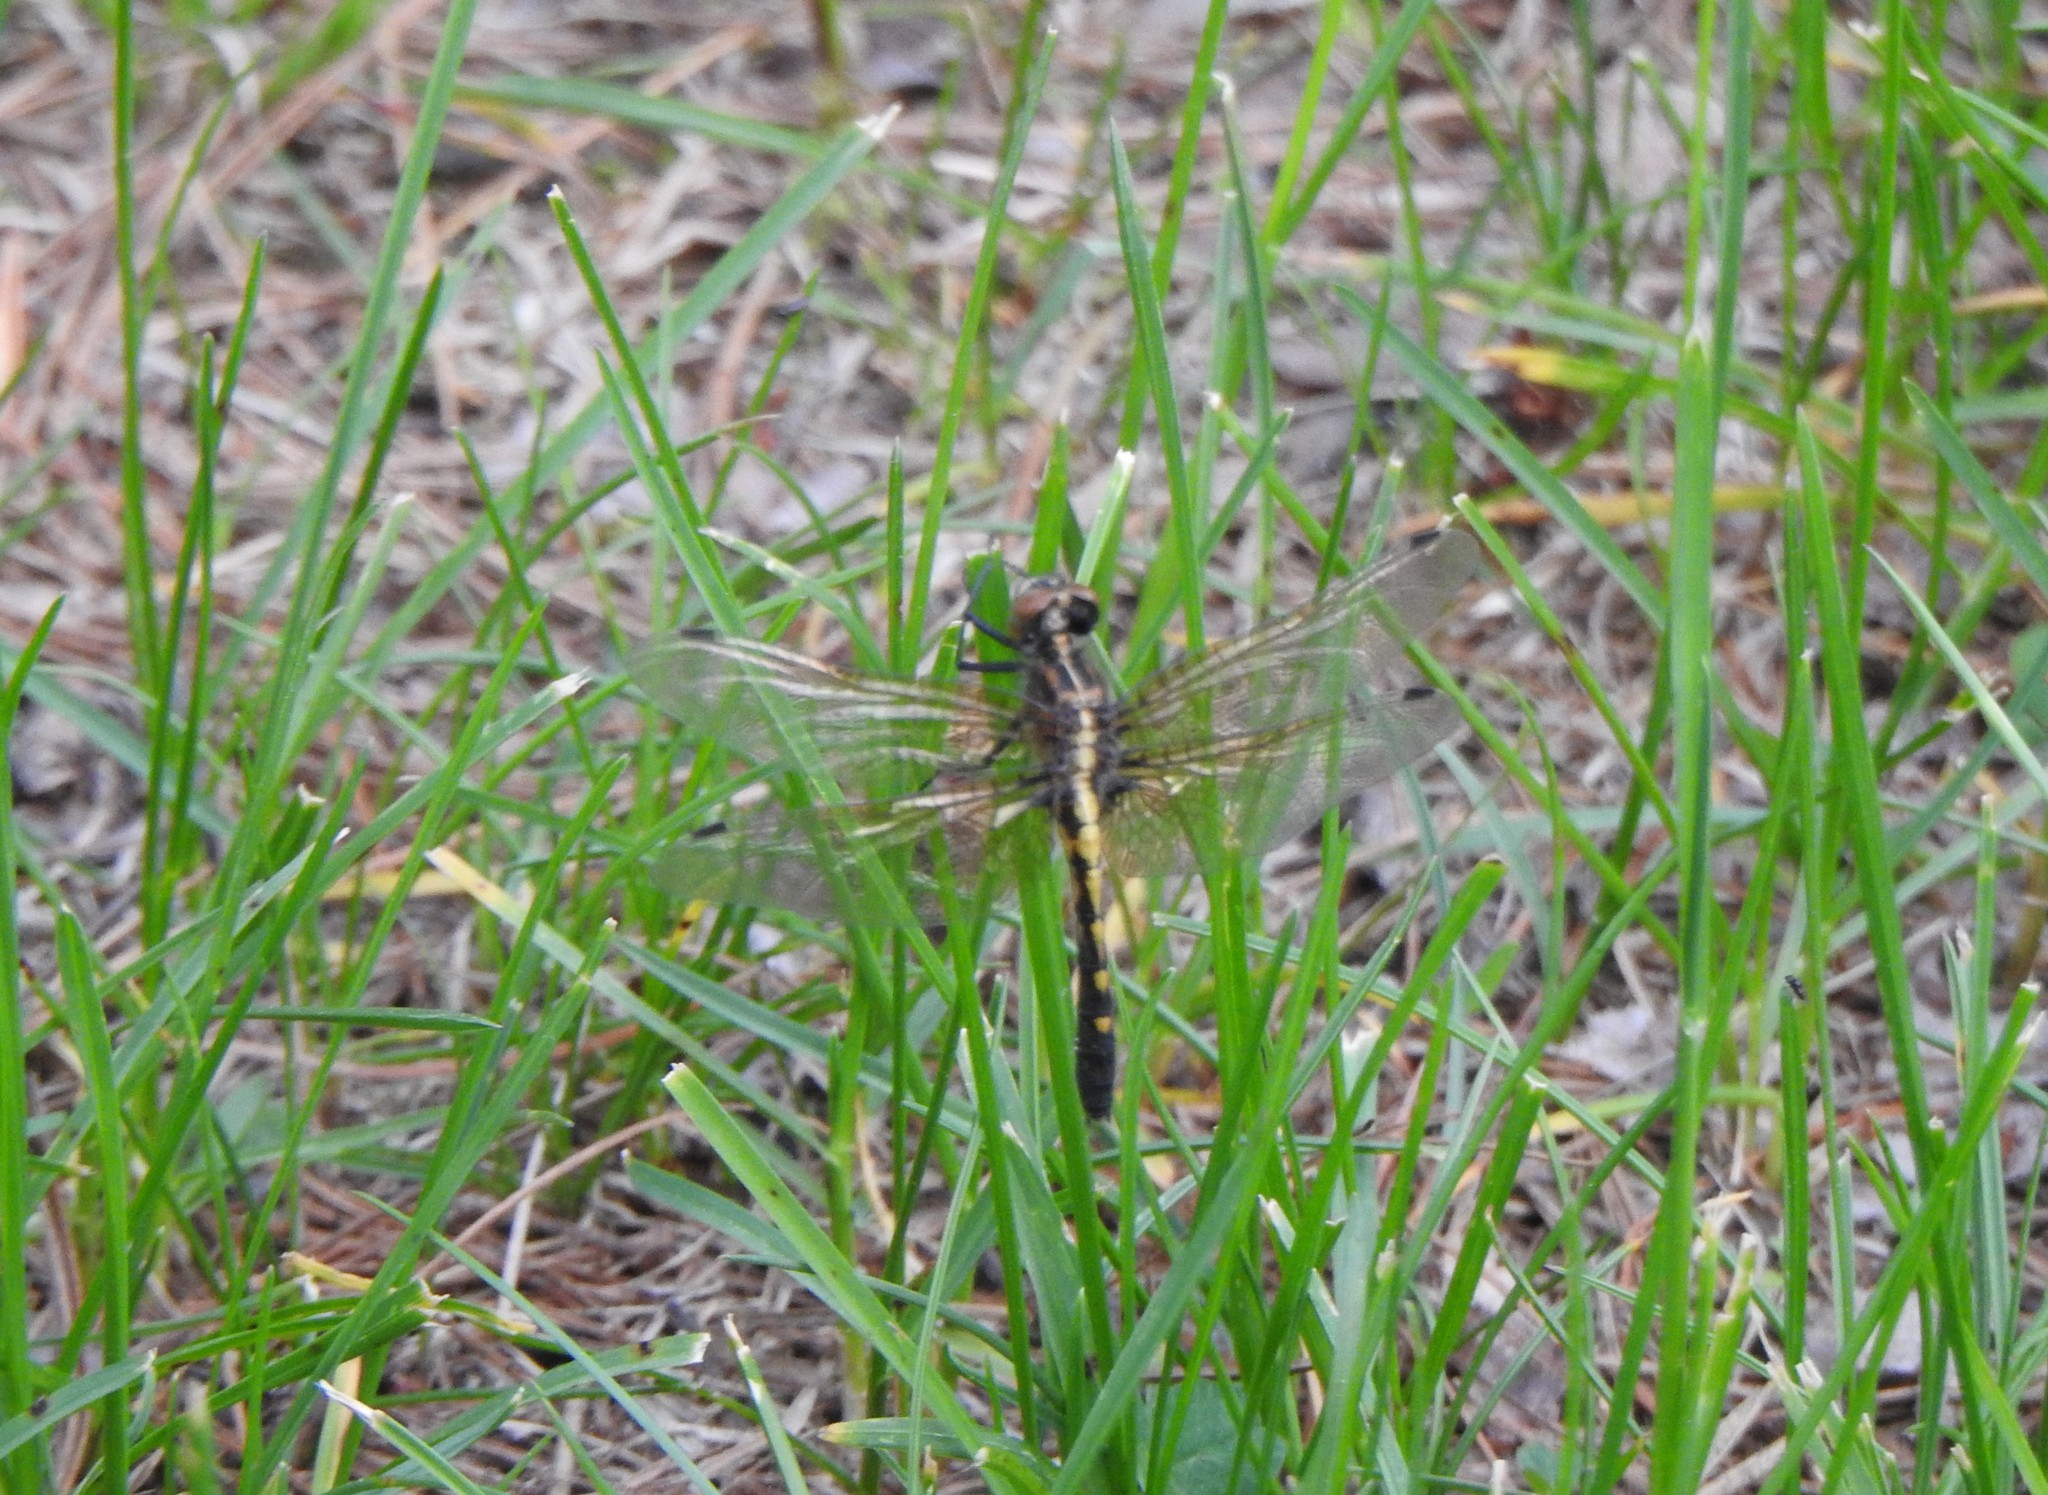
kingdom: Animalia
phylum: Arthropoda
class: Insecta
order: Odonata
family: Libellulidae
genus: Leucorrhinia
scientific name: Leucorrhinia intacta
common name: Dot-tailed whiteface
